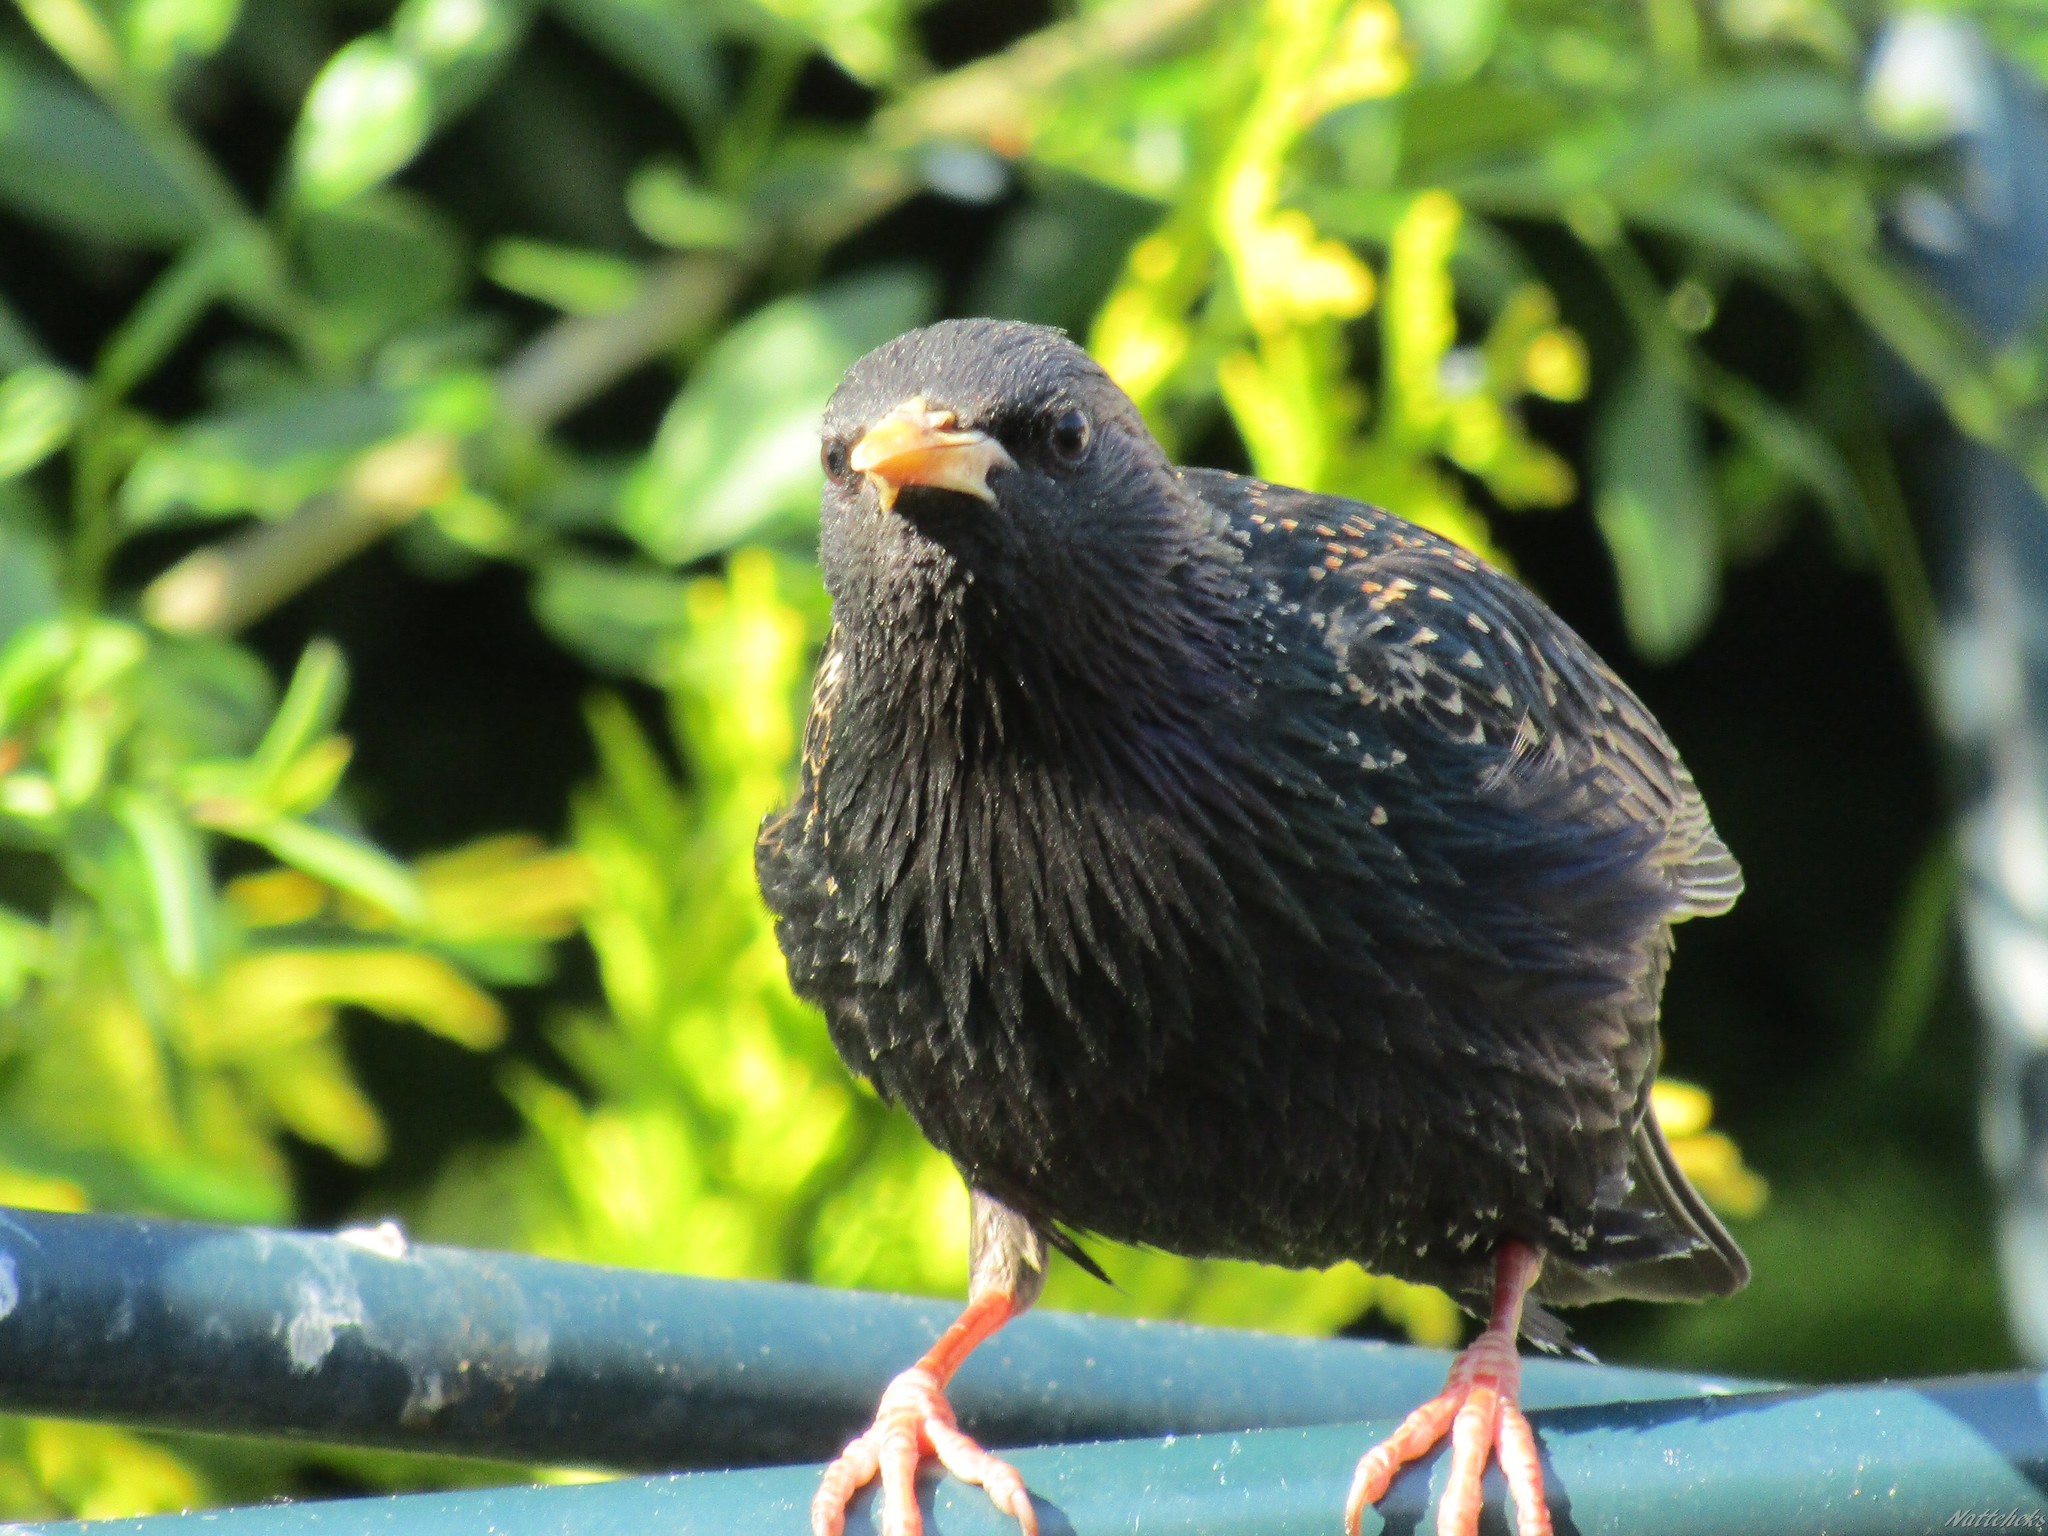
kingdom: Animalia
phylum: Chordata
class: Aves
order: Passeriformes
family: Sturnidae
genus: Sturnus
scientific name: Sturnus vulgaris
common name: Common starling
